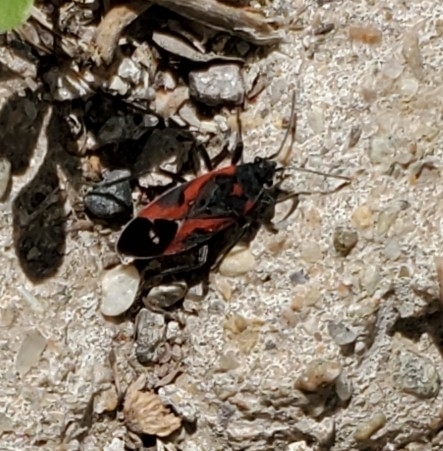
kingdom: Animalia
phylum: Arthropoda
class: Insecta
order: Hemiptera
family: Lygaeidae
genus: Lygaeus
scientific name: Lygaeus kalmii
